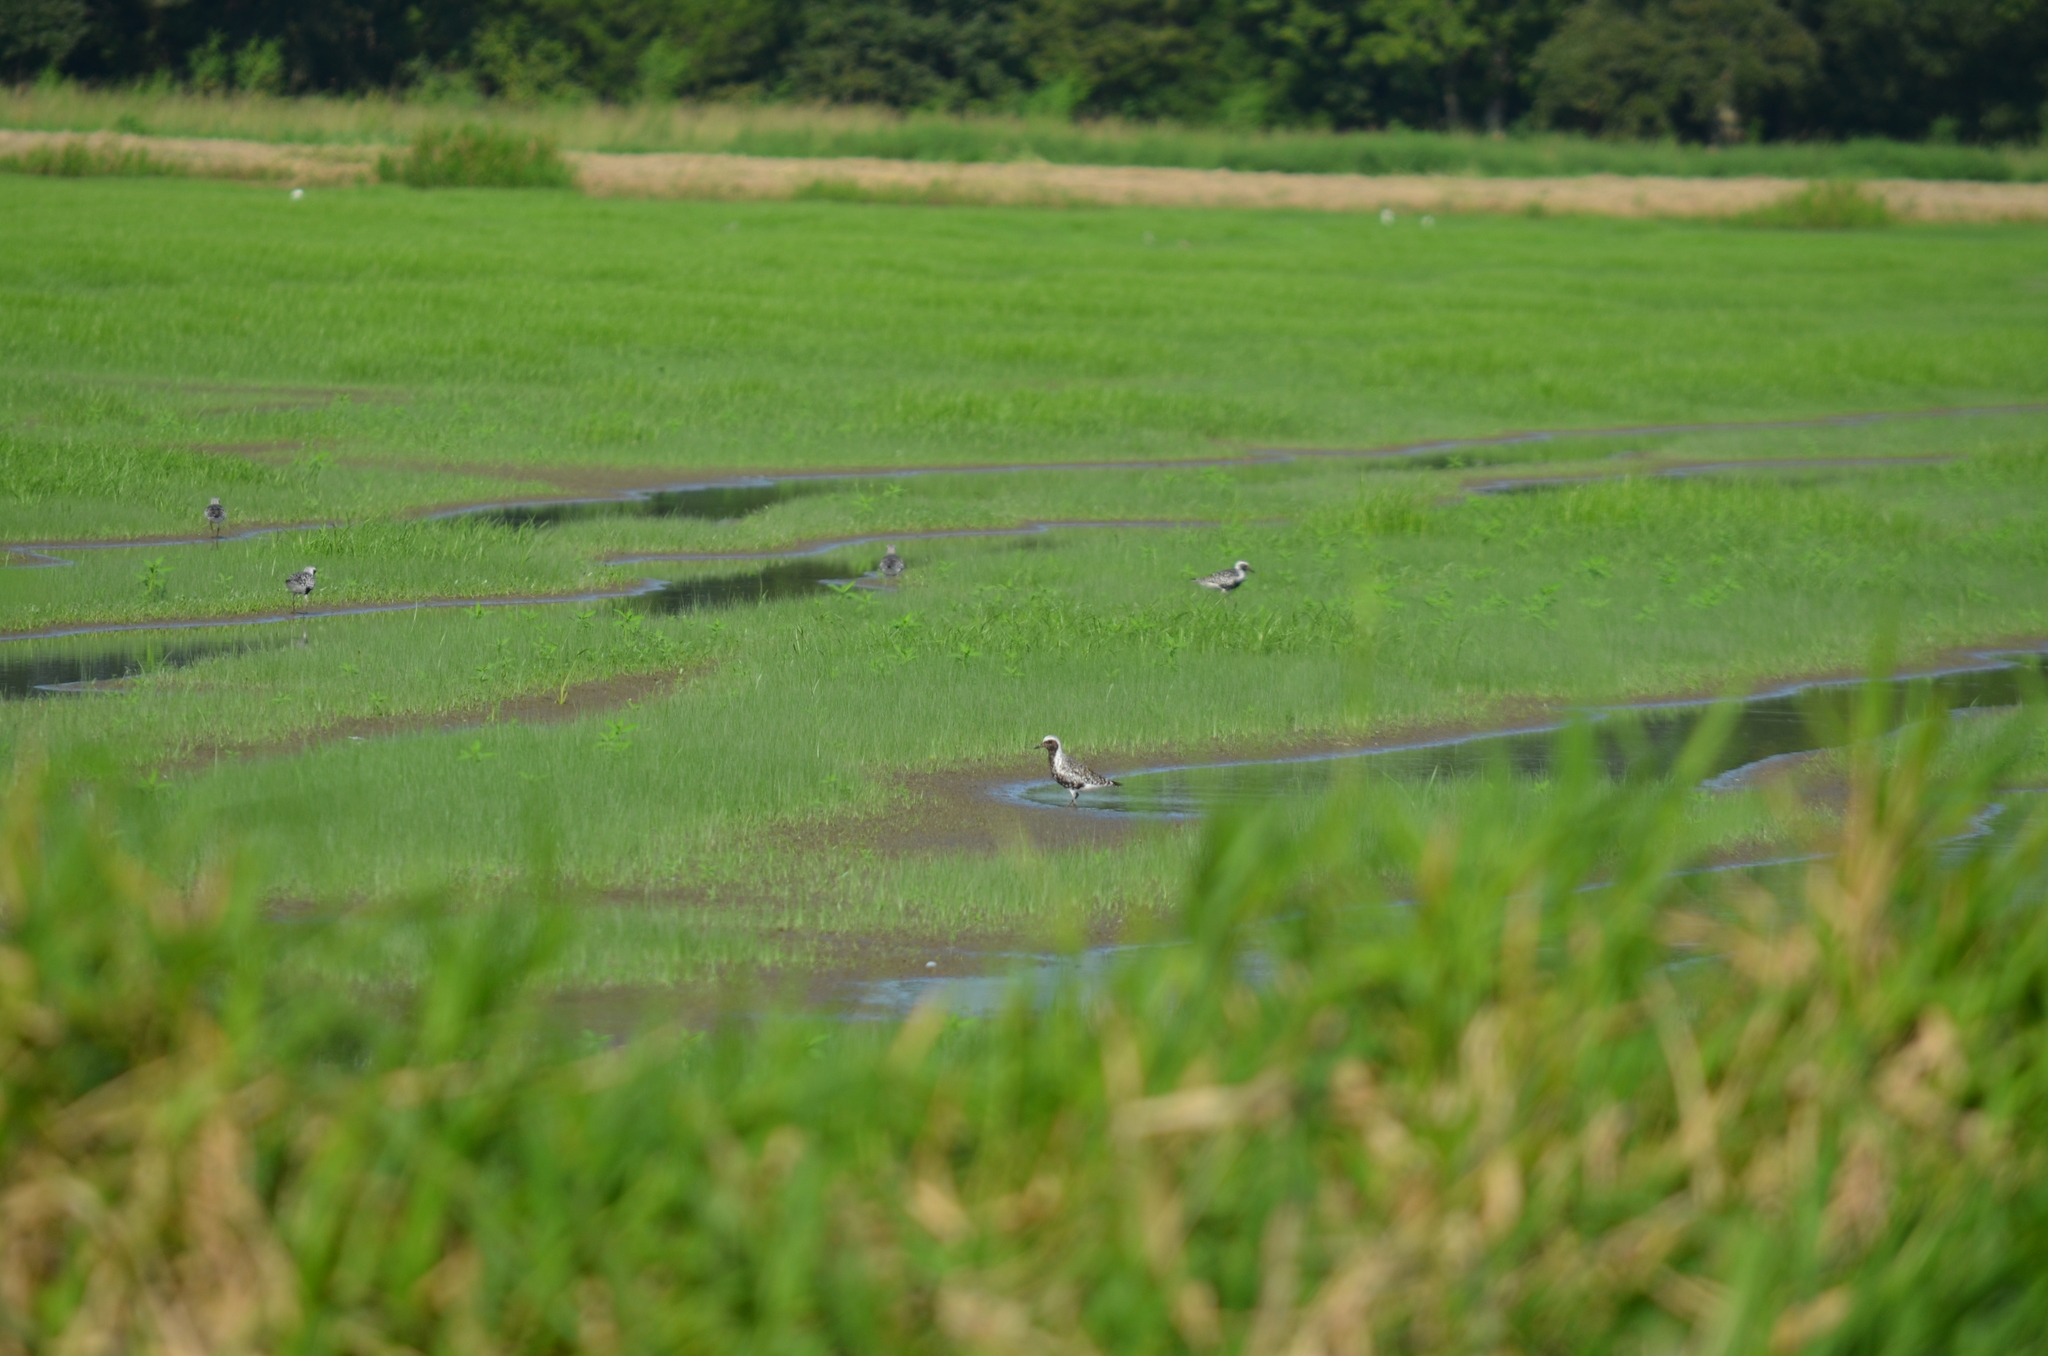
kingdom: Animalia
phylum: Chordata
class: Aves
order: Charadriiformes
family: Charadriidae
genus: Pluvialis
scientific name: Pluvialis squatarola
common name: Grey plover
